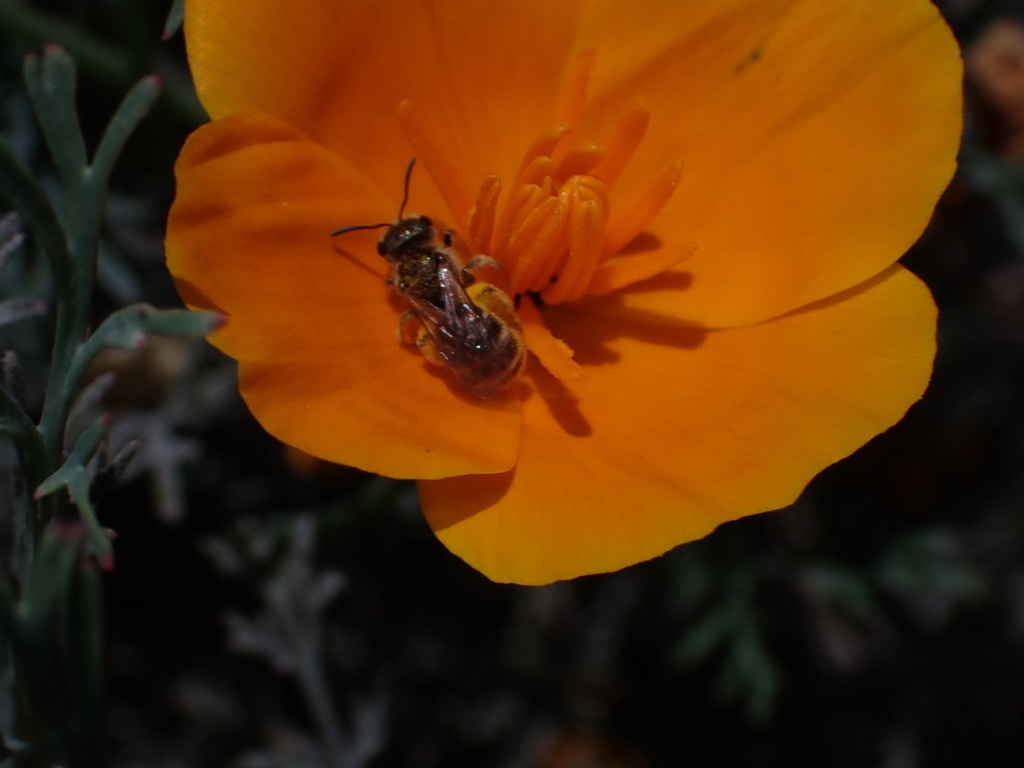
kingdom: Animalia
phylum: Arthropoda
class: Insecta
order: Hymenoptera
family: Halictidae
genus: Halictus
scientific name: Halictus tripartitus
